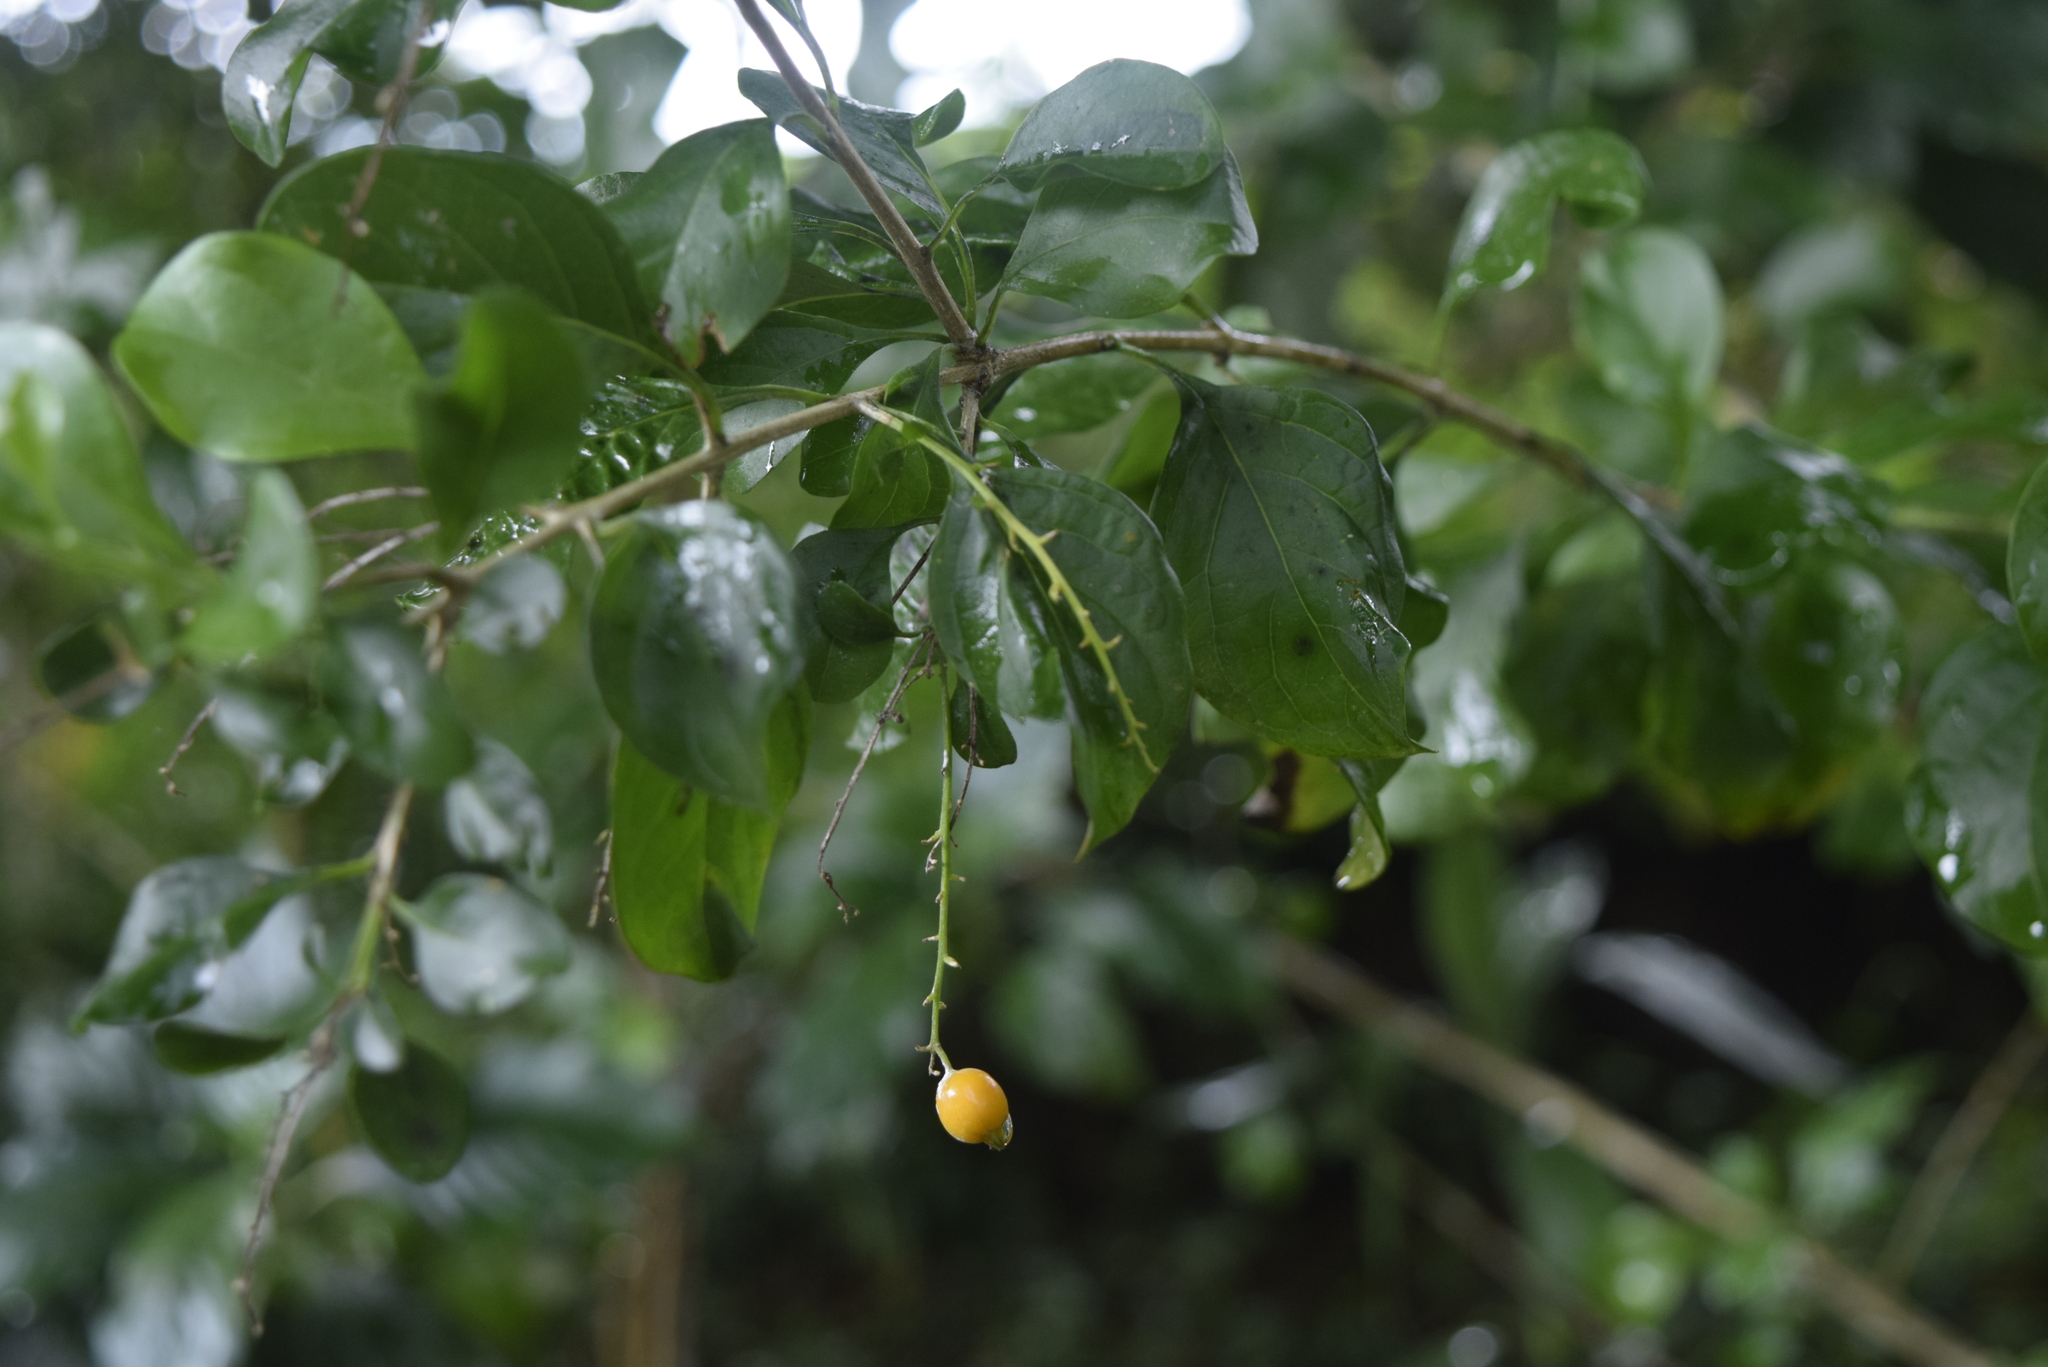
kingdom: Plantae
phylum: Tracheophyta
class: Magnoliopsida
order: Lamiales
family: Verbenaceae
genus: Duranta
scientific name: Duranta erecta
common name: Golden dewdrops
